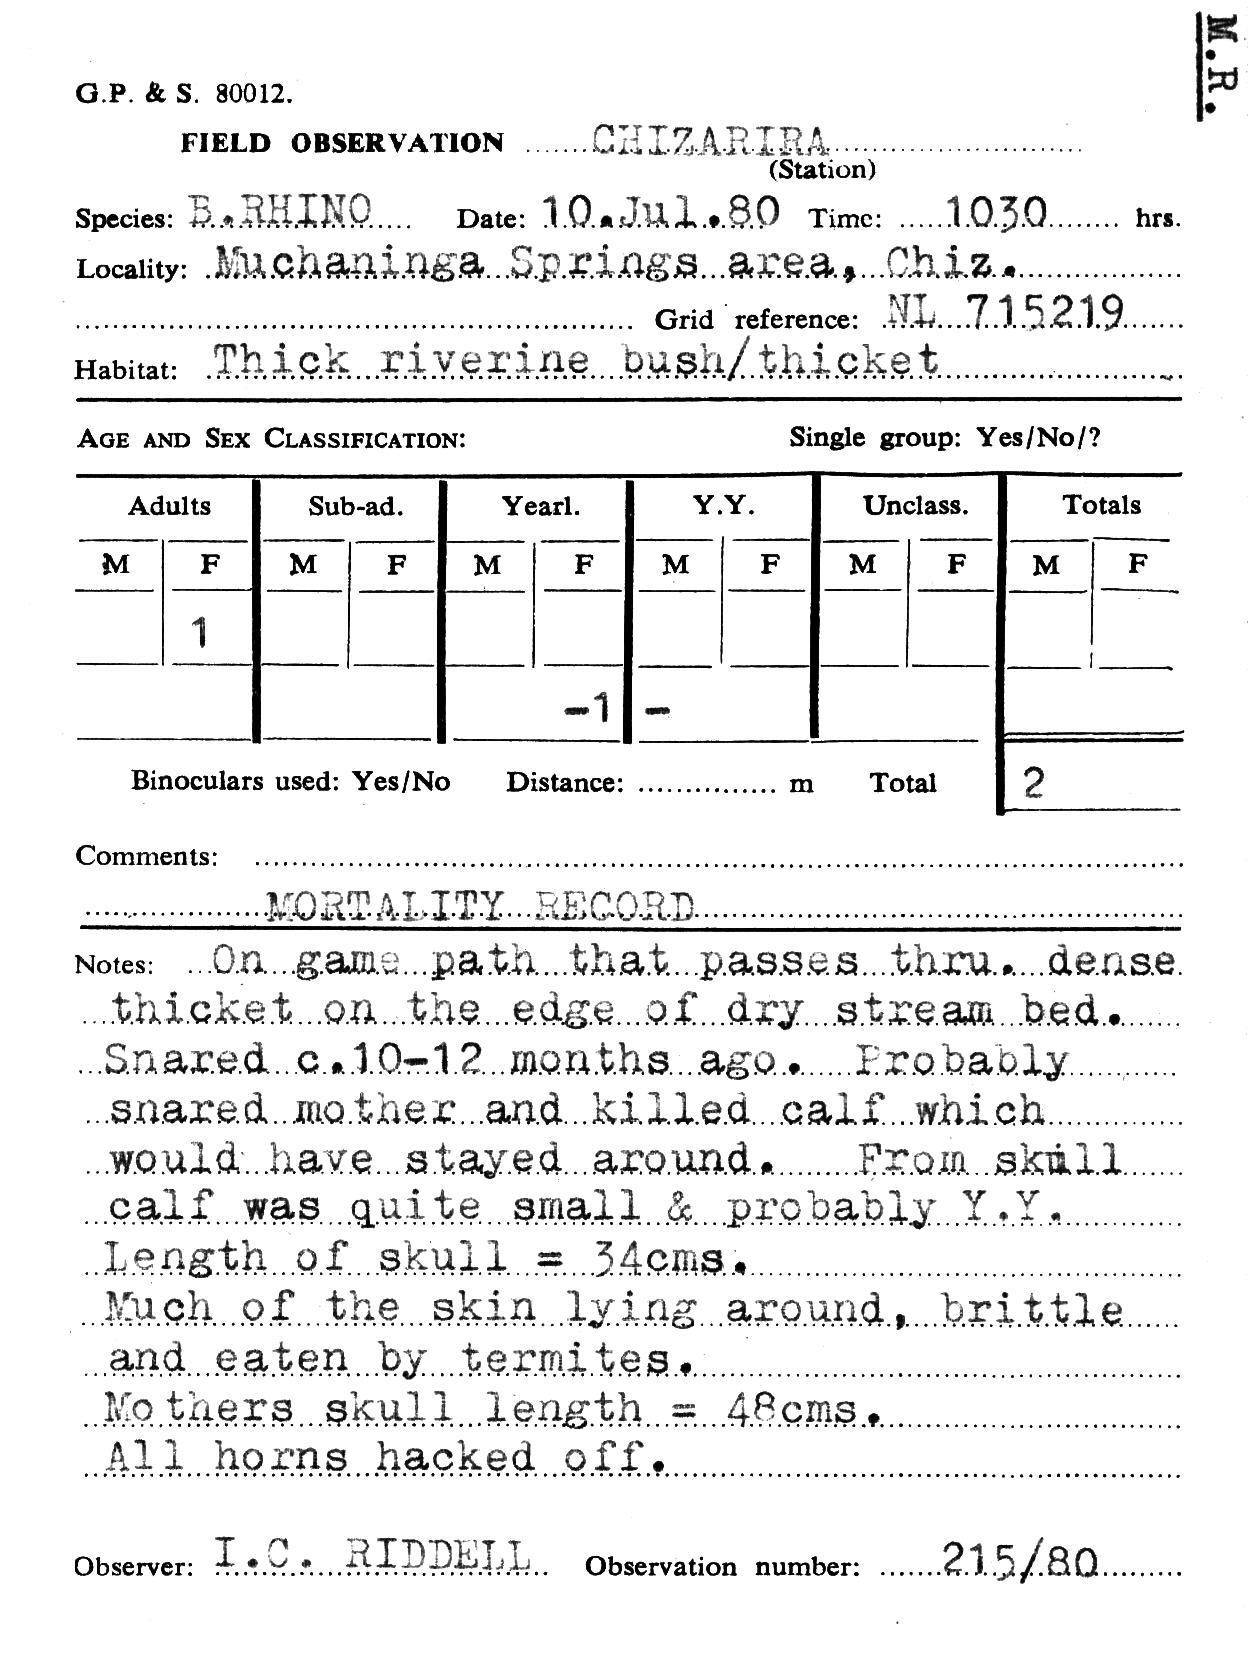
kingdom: Animalia
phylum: Chordata
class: Mammalia
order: Perissodactyla
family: Rhinocerotidae
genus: Diceros
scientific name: Diceros bicornis
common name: Black rhinoceros
